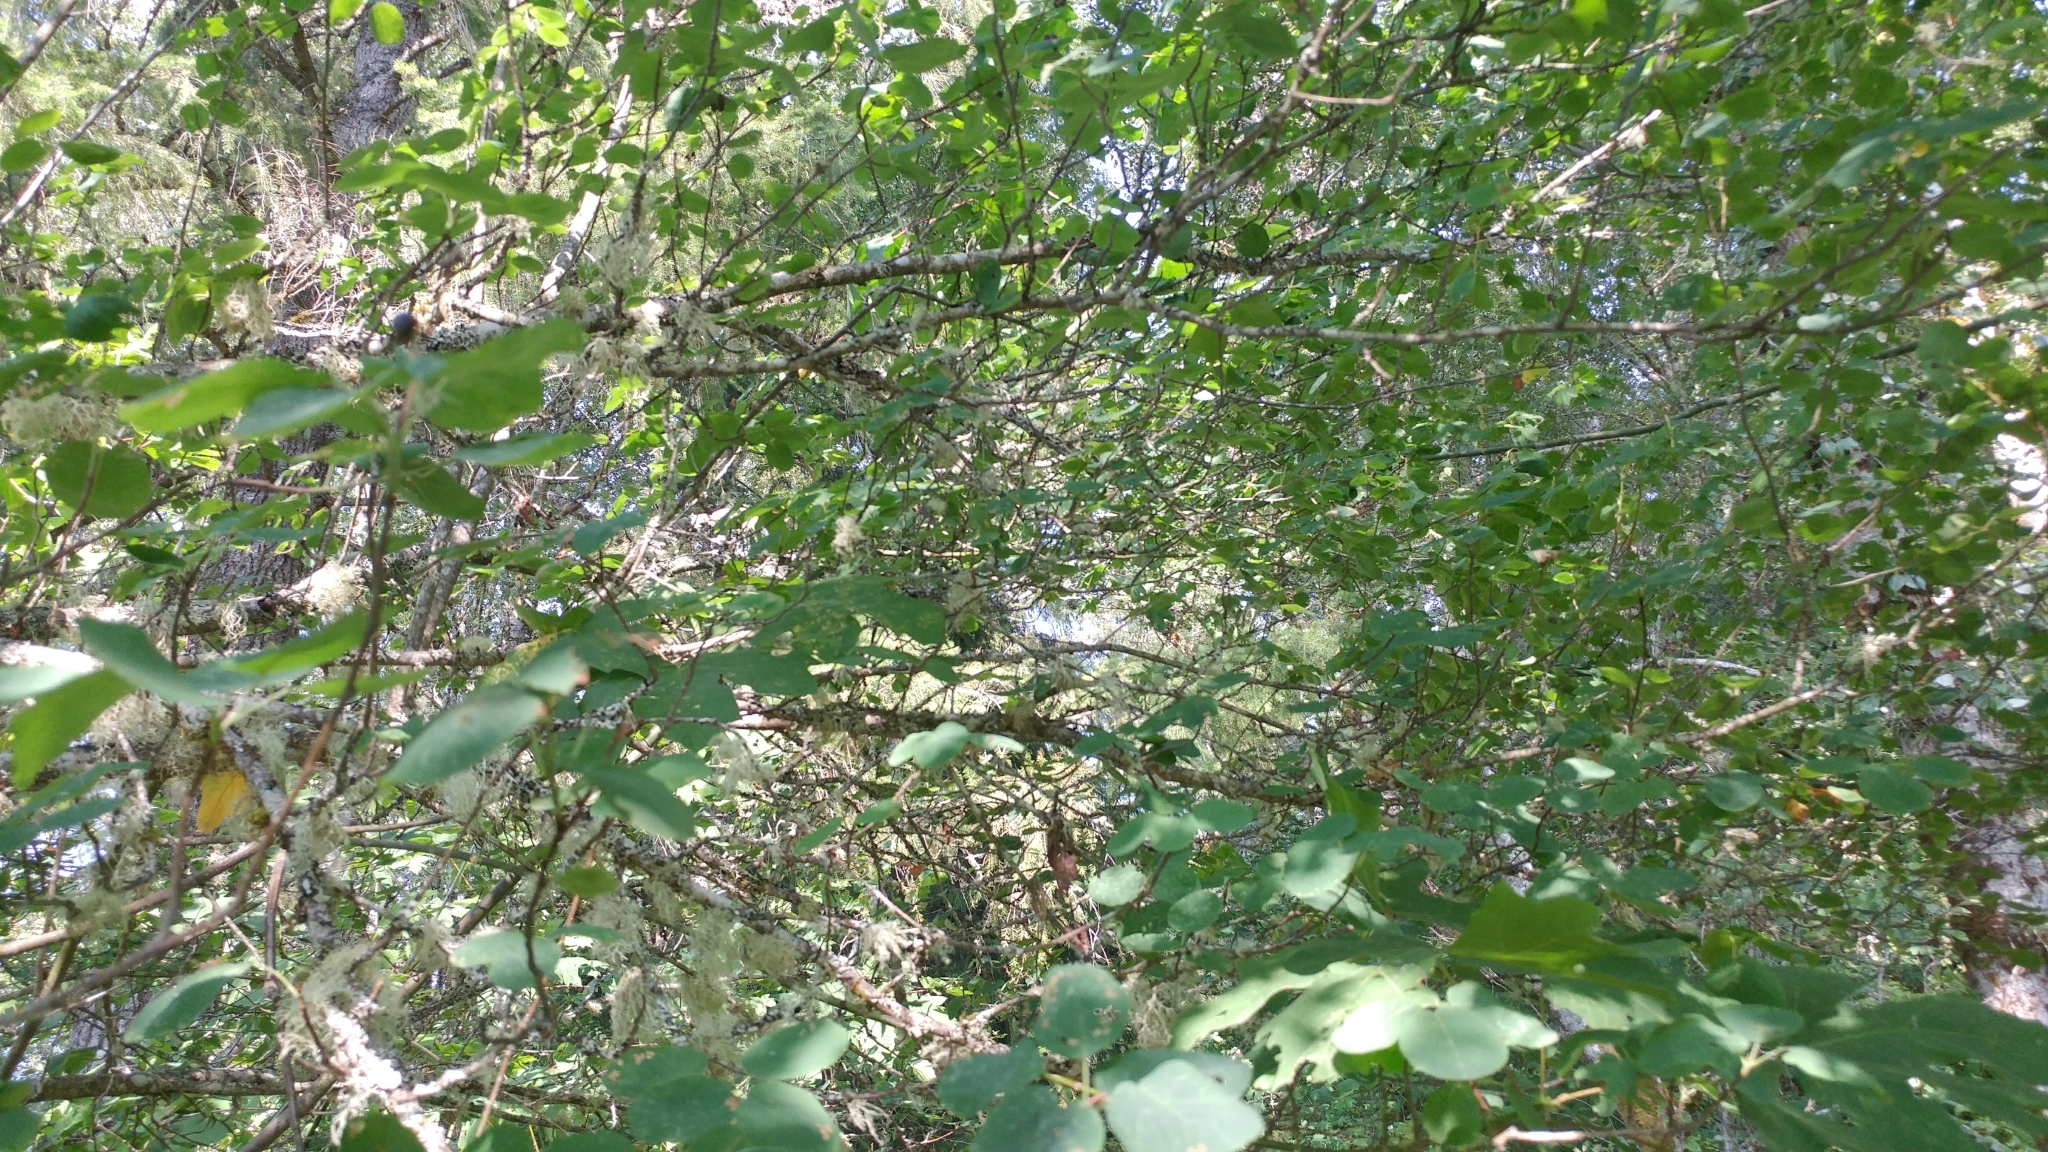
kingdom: Plantae
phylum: Tracheophyta
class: Magnoliopsida
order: Rosales
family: Rosaceae
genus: Amelanchier
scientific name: Amelanchier alnifolia
